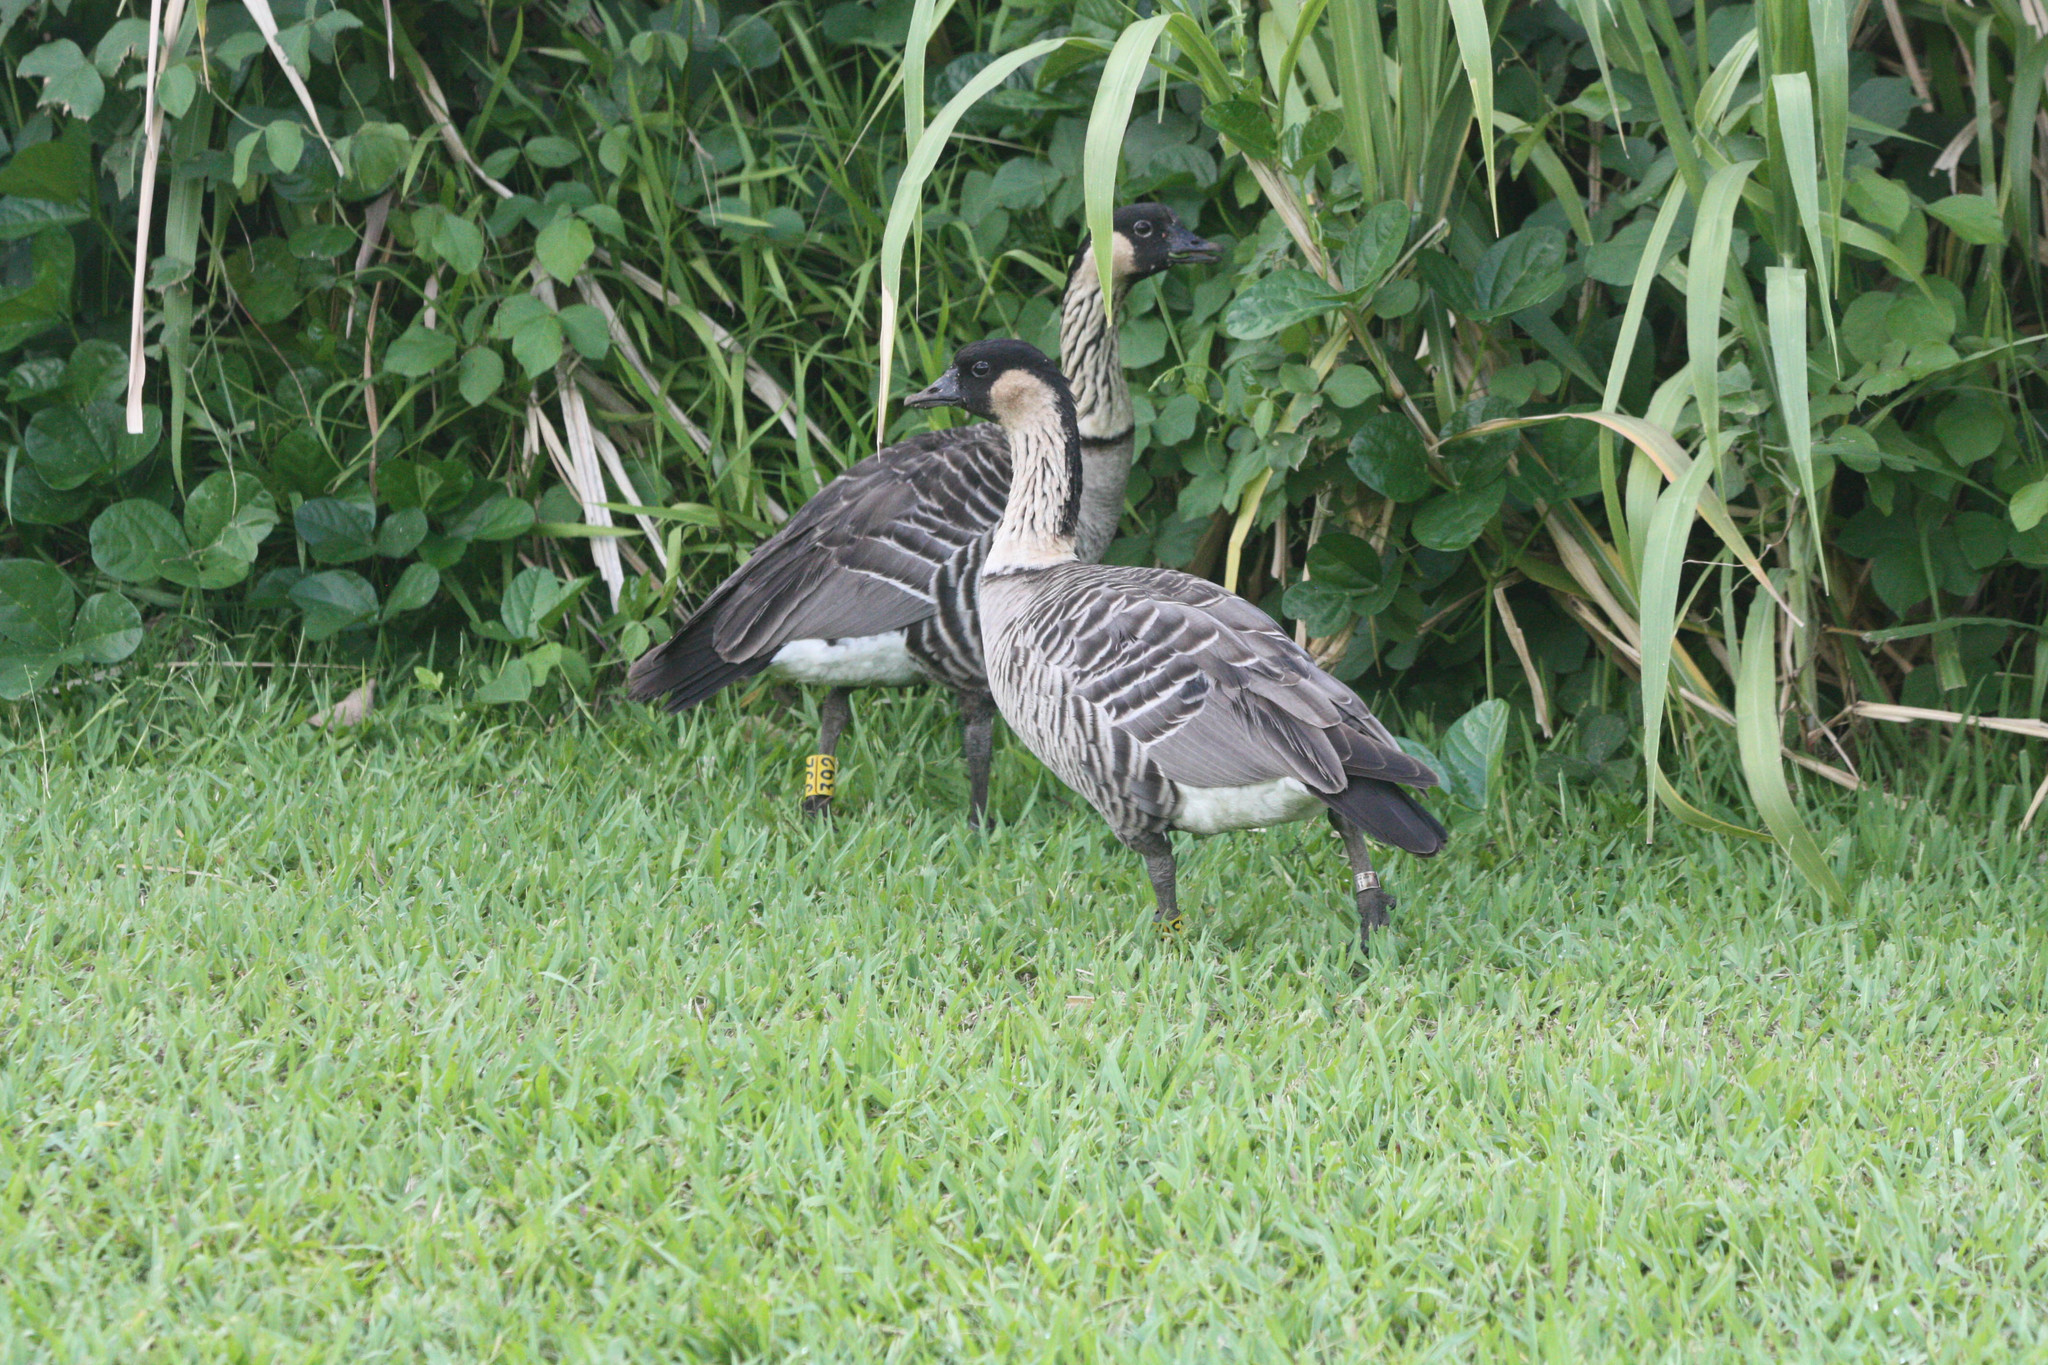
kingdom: Animalia
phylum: Chordata
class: Aves
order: Anseriformes
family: Anatidae
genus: Branta
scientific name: Branta sandvicensis
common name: Nene
